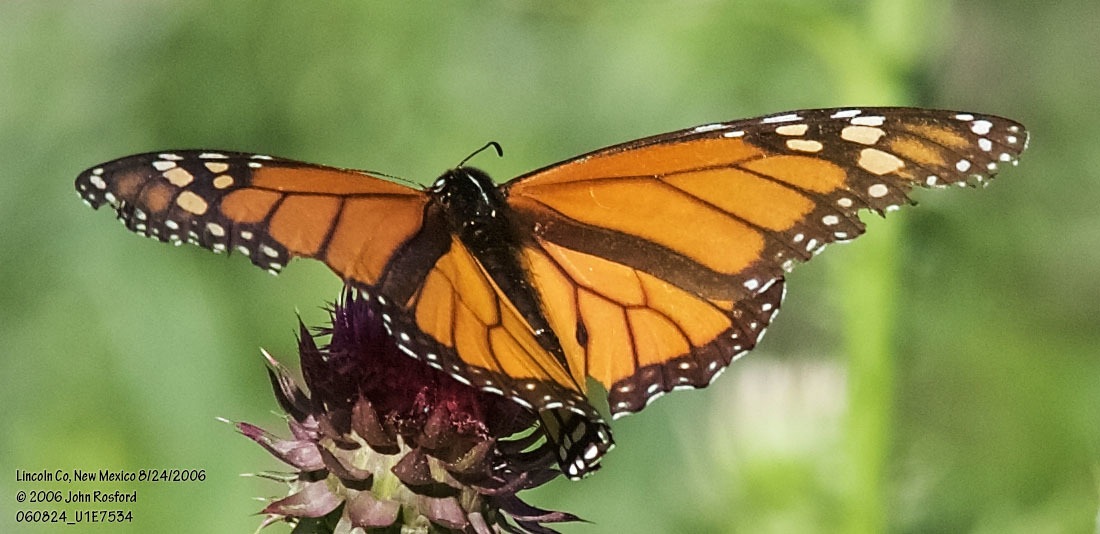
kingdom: Animalia
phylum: Arthropoda
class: Insecta
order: Lepidoptera
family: Nymphalidae
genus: Danaus
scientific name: Danaus plexippus
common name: Monarch
